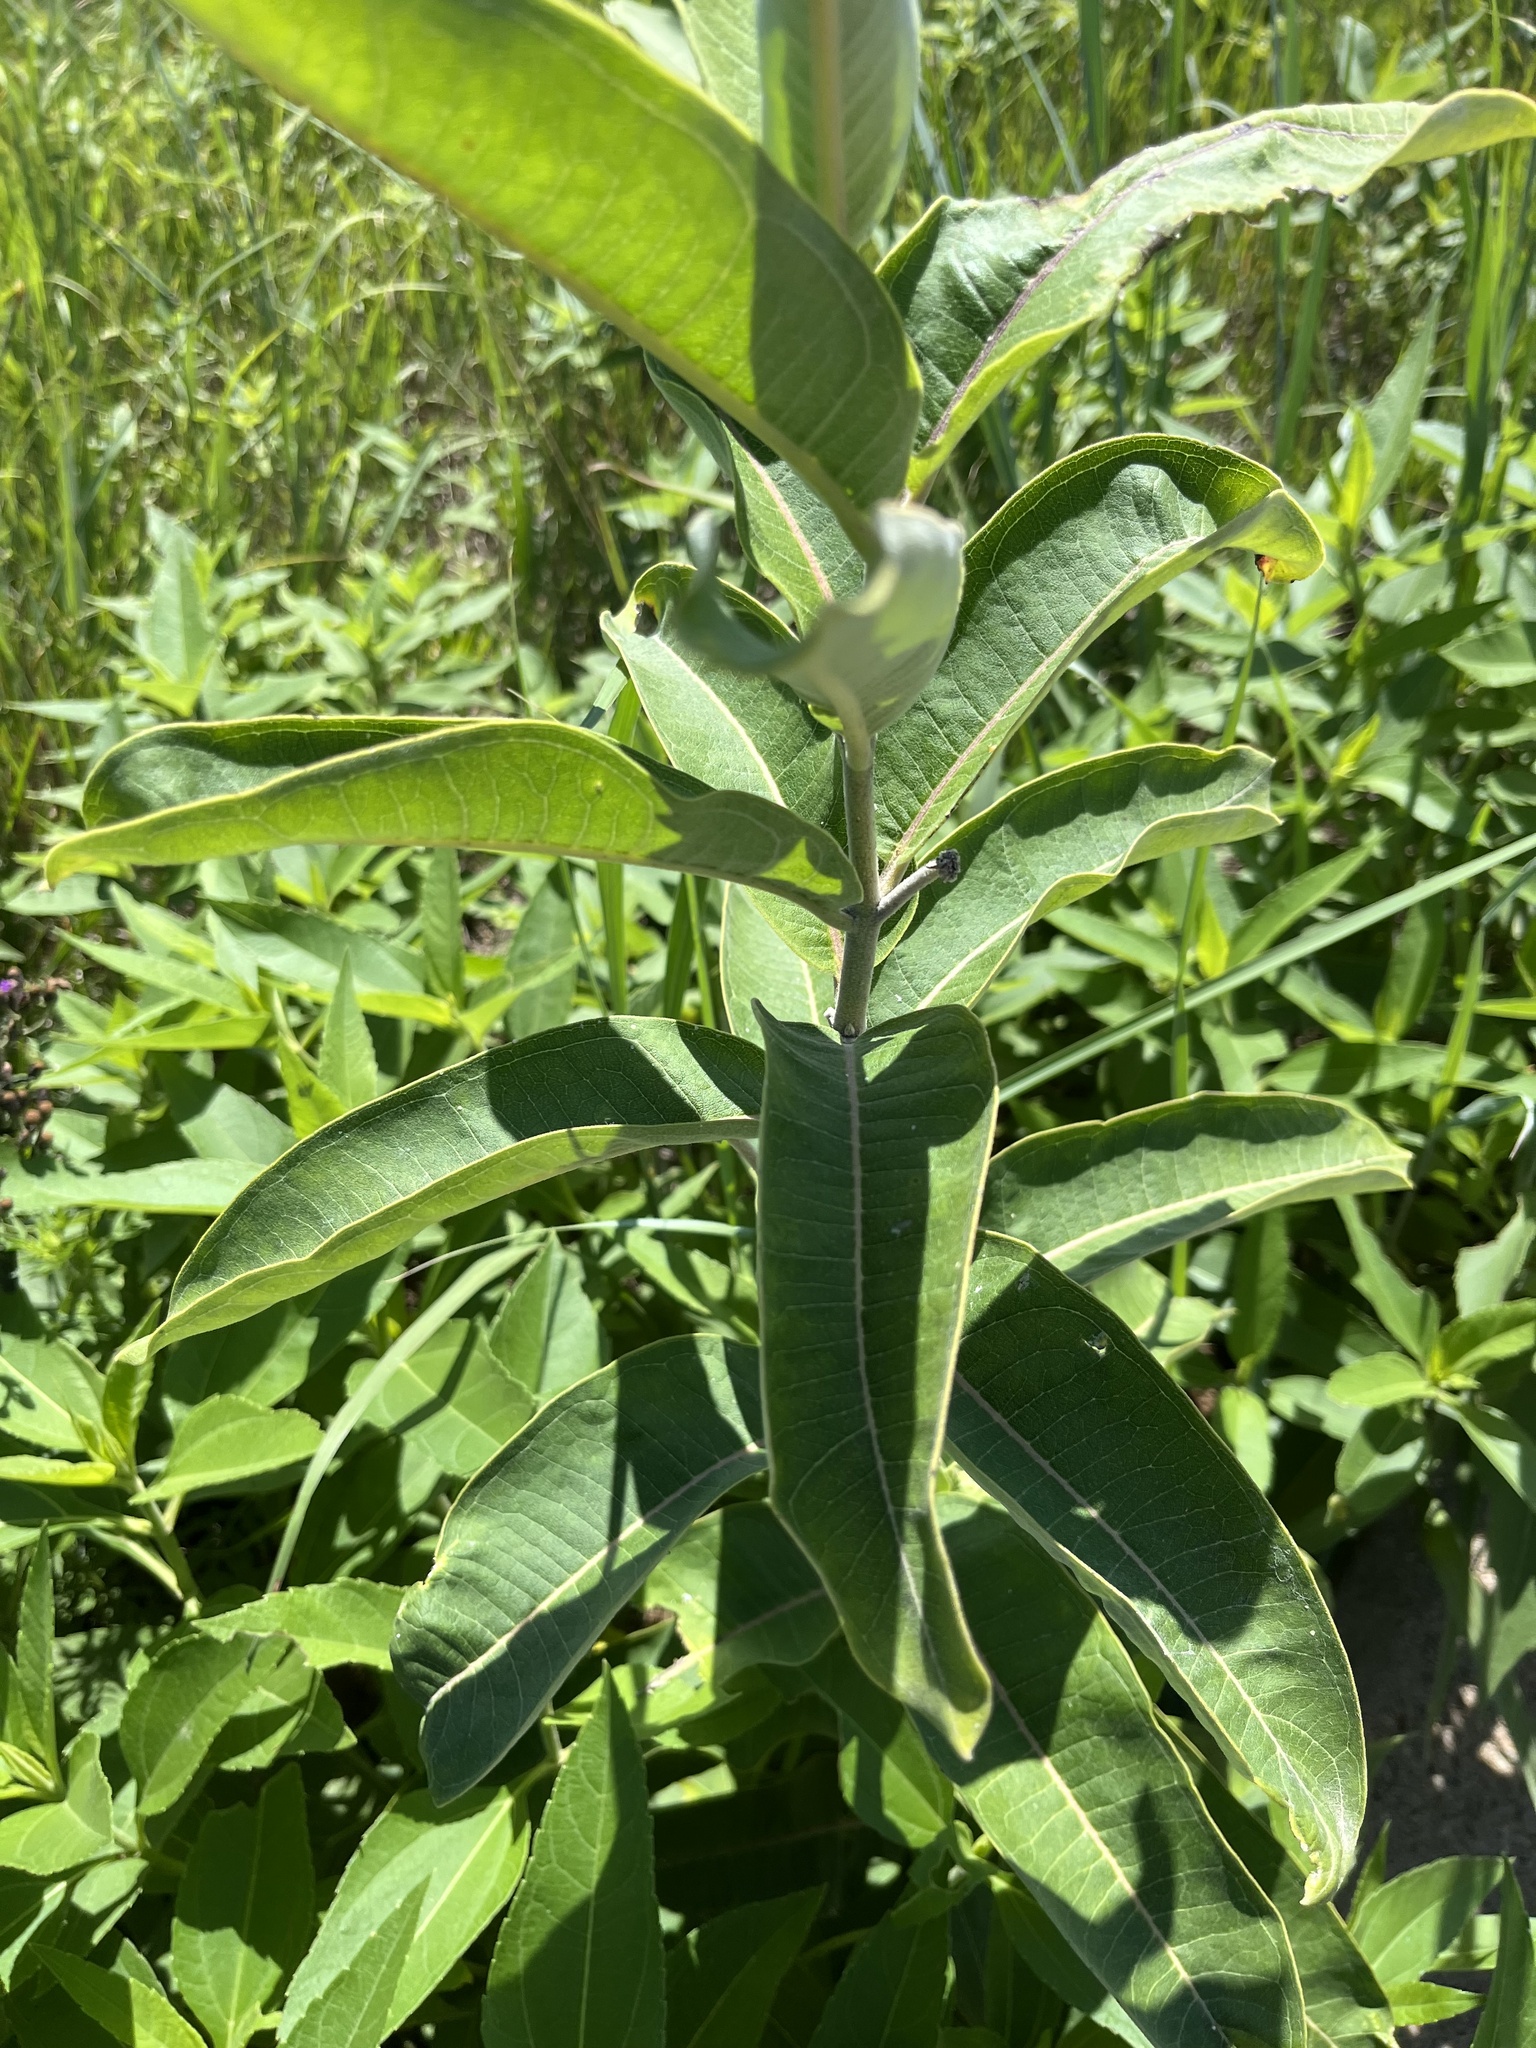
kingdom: Plantae
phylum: Tracheophyta
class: Magnoliopsida
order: Gentianales
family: Apocynaceae
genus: Asclepias
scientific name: Asclepias syriaca
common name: Common milkweed
